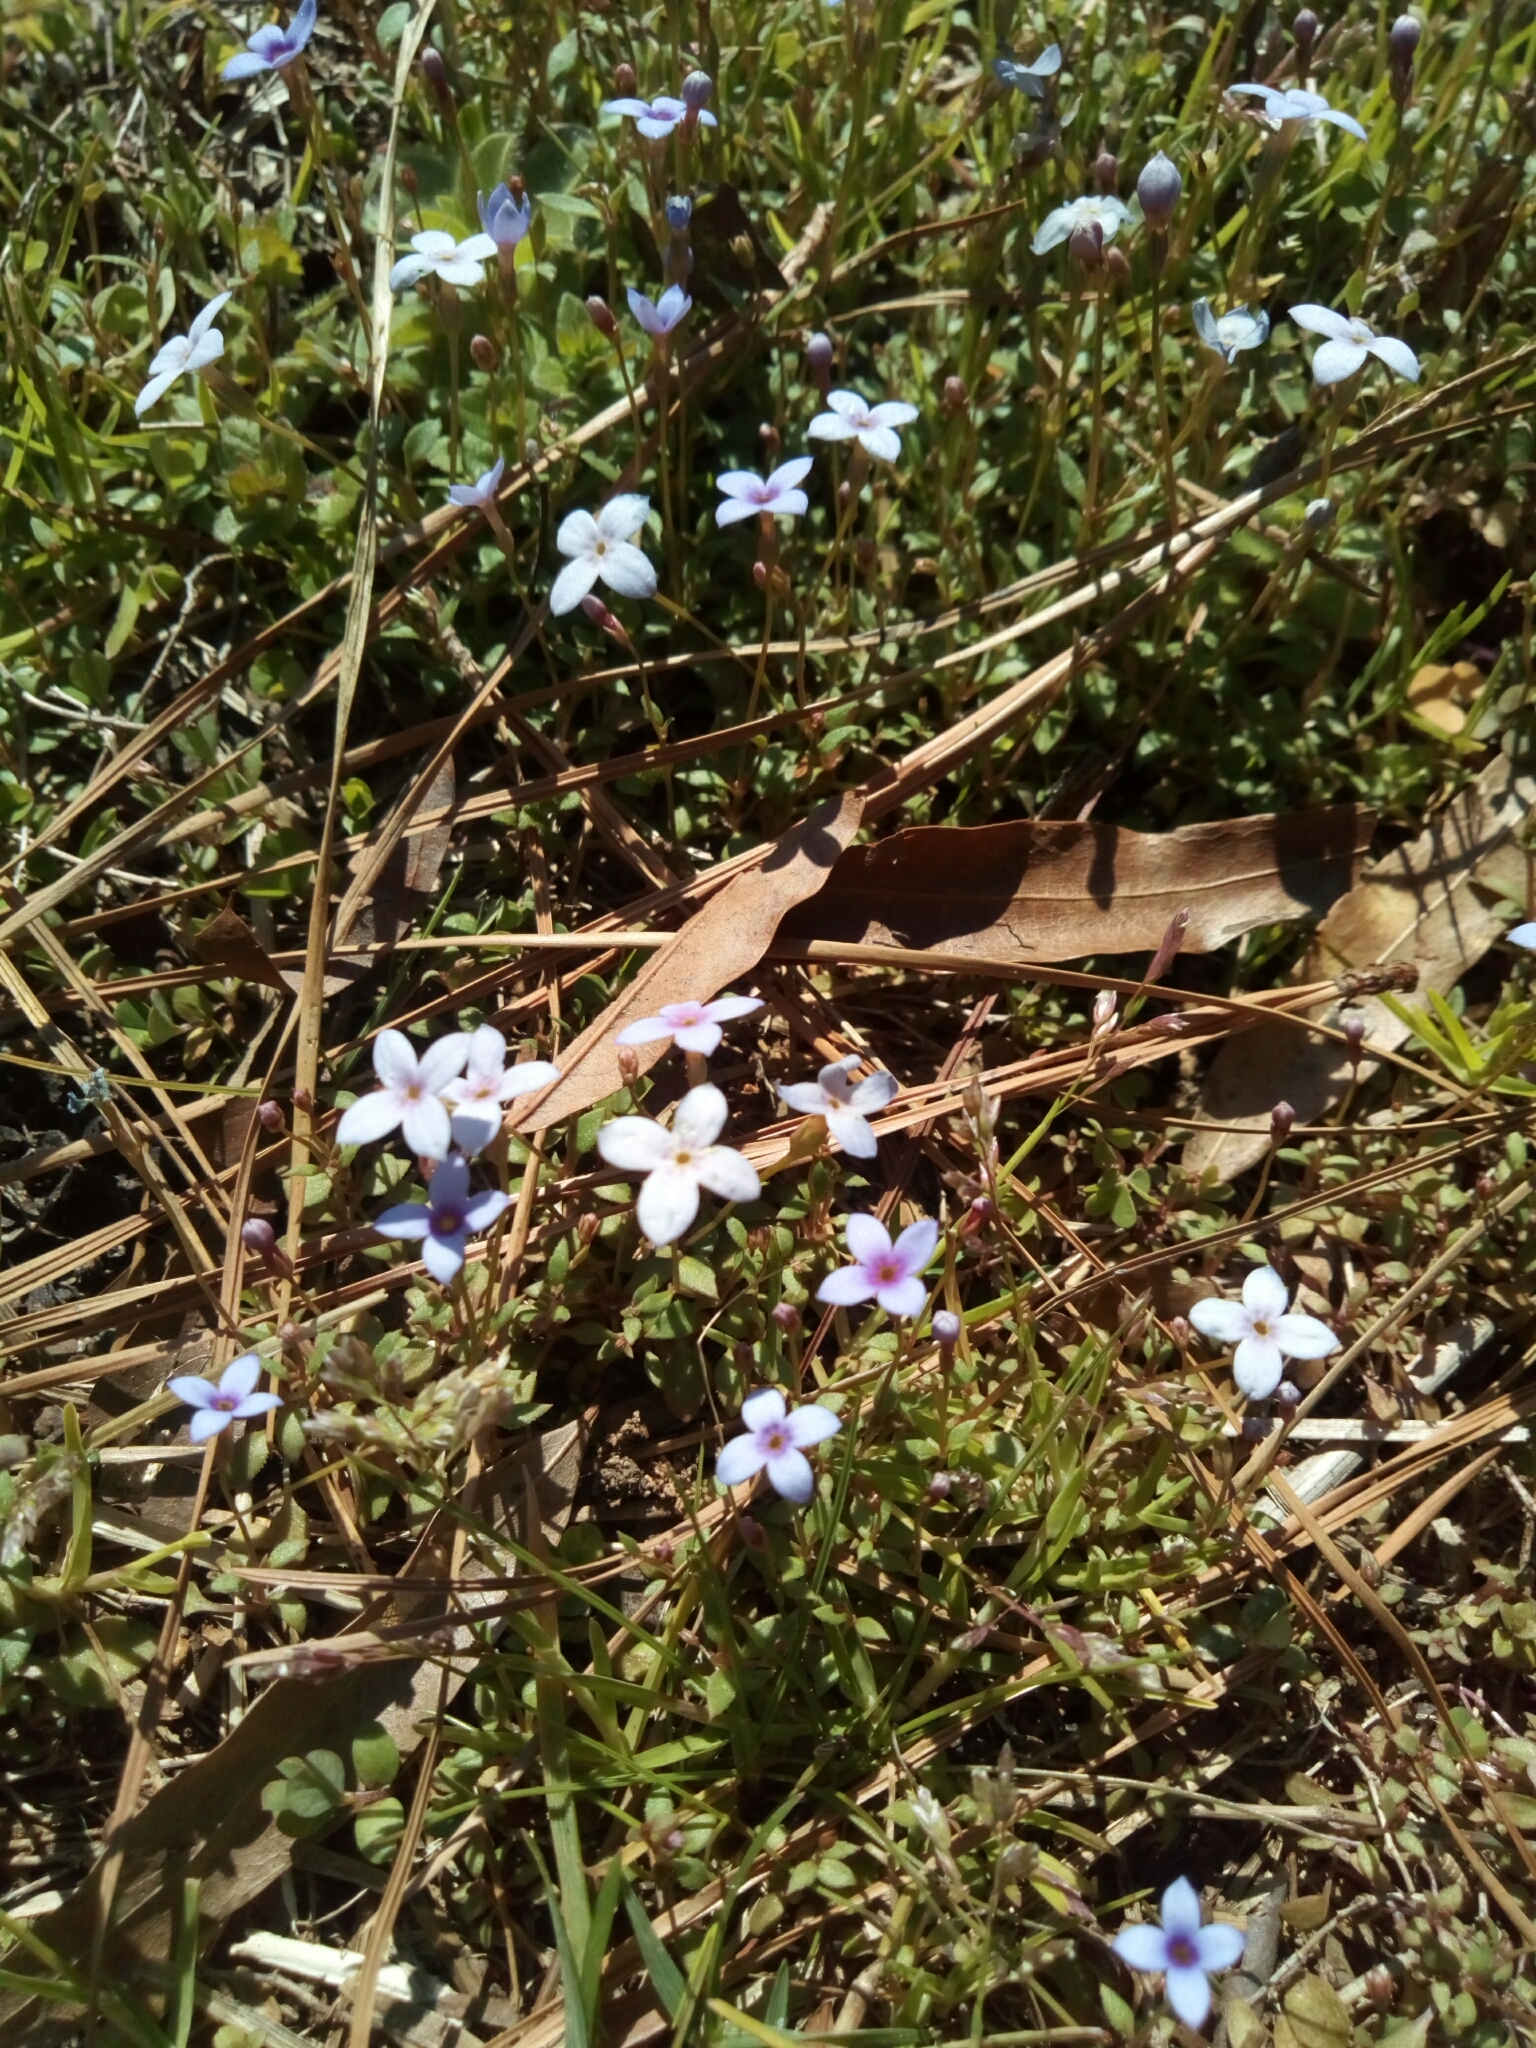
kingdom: Plantae
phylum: Tracheophyta
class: Magnoliopsida
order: Gentianales
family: Rubiaceae
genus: Houstonia
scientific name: Houstonia pusilla
